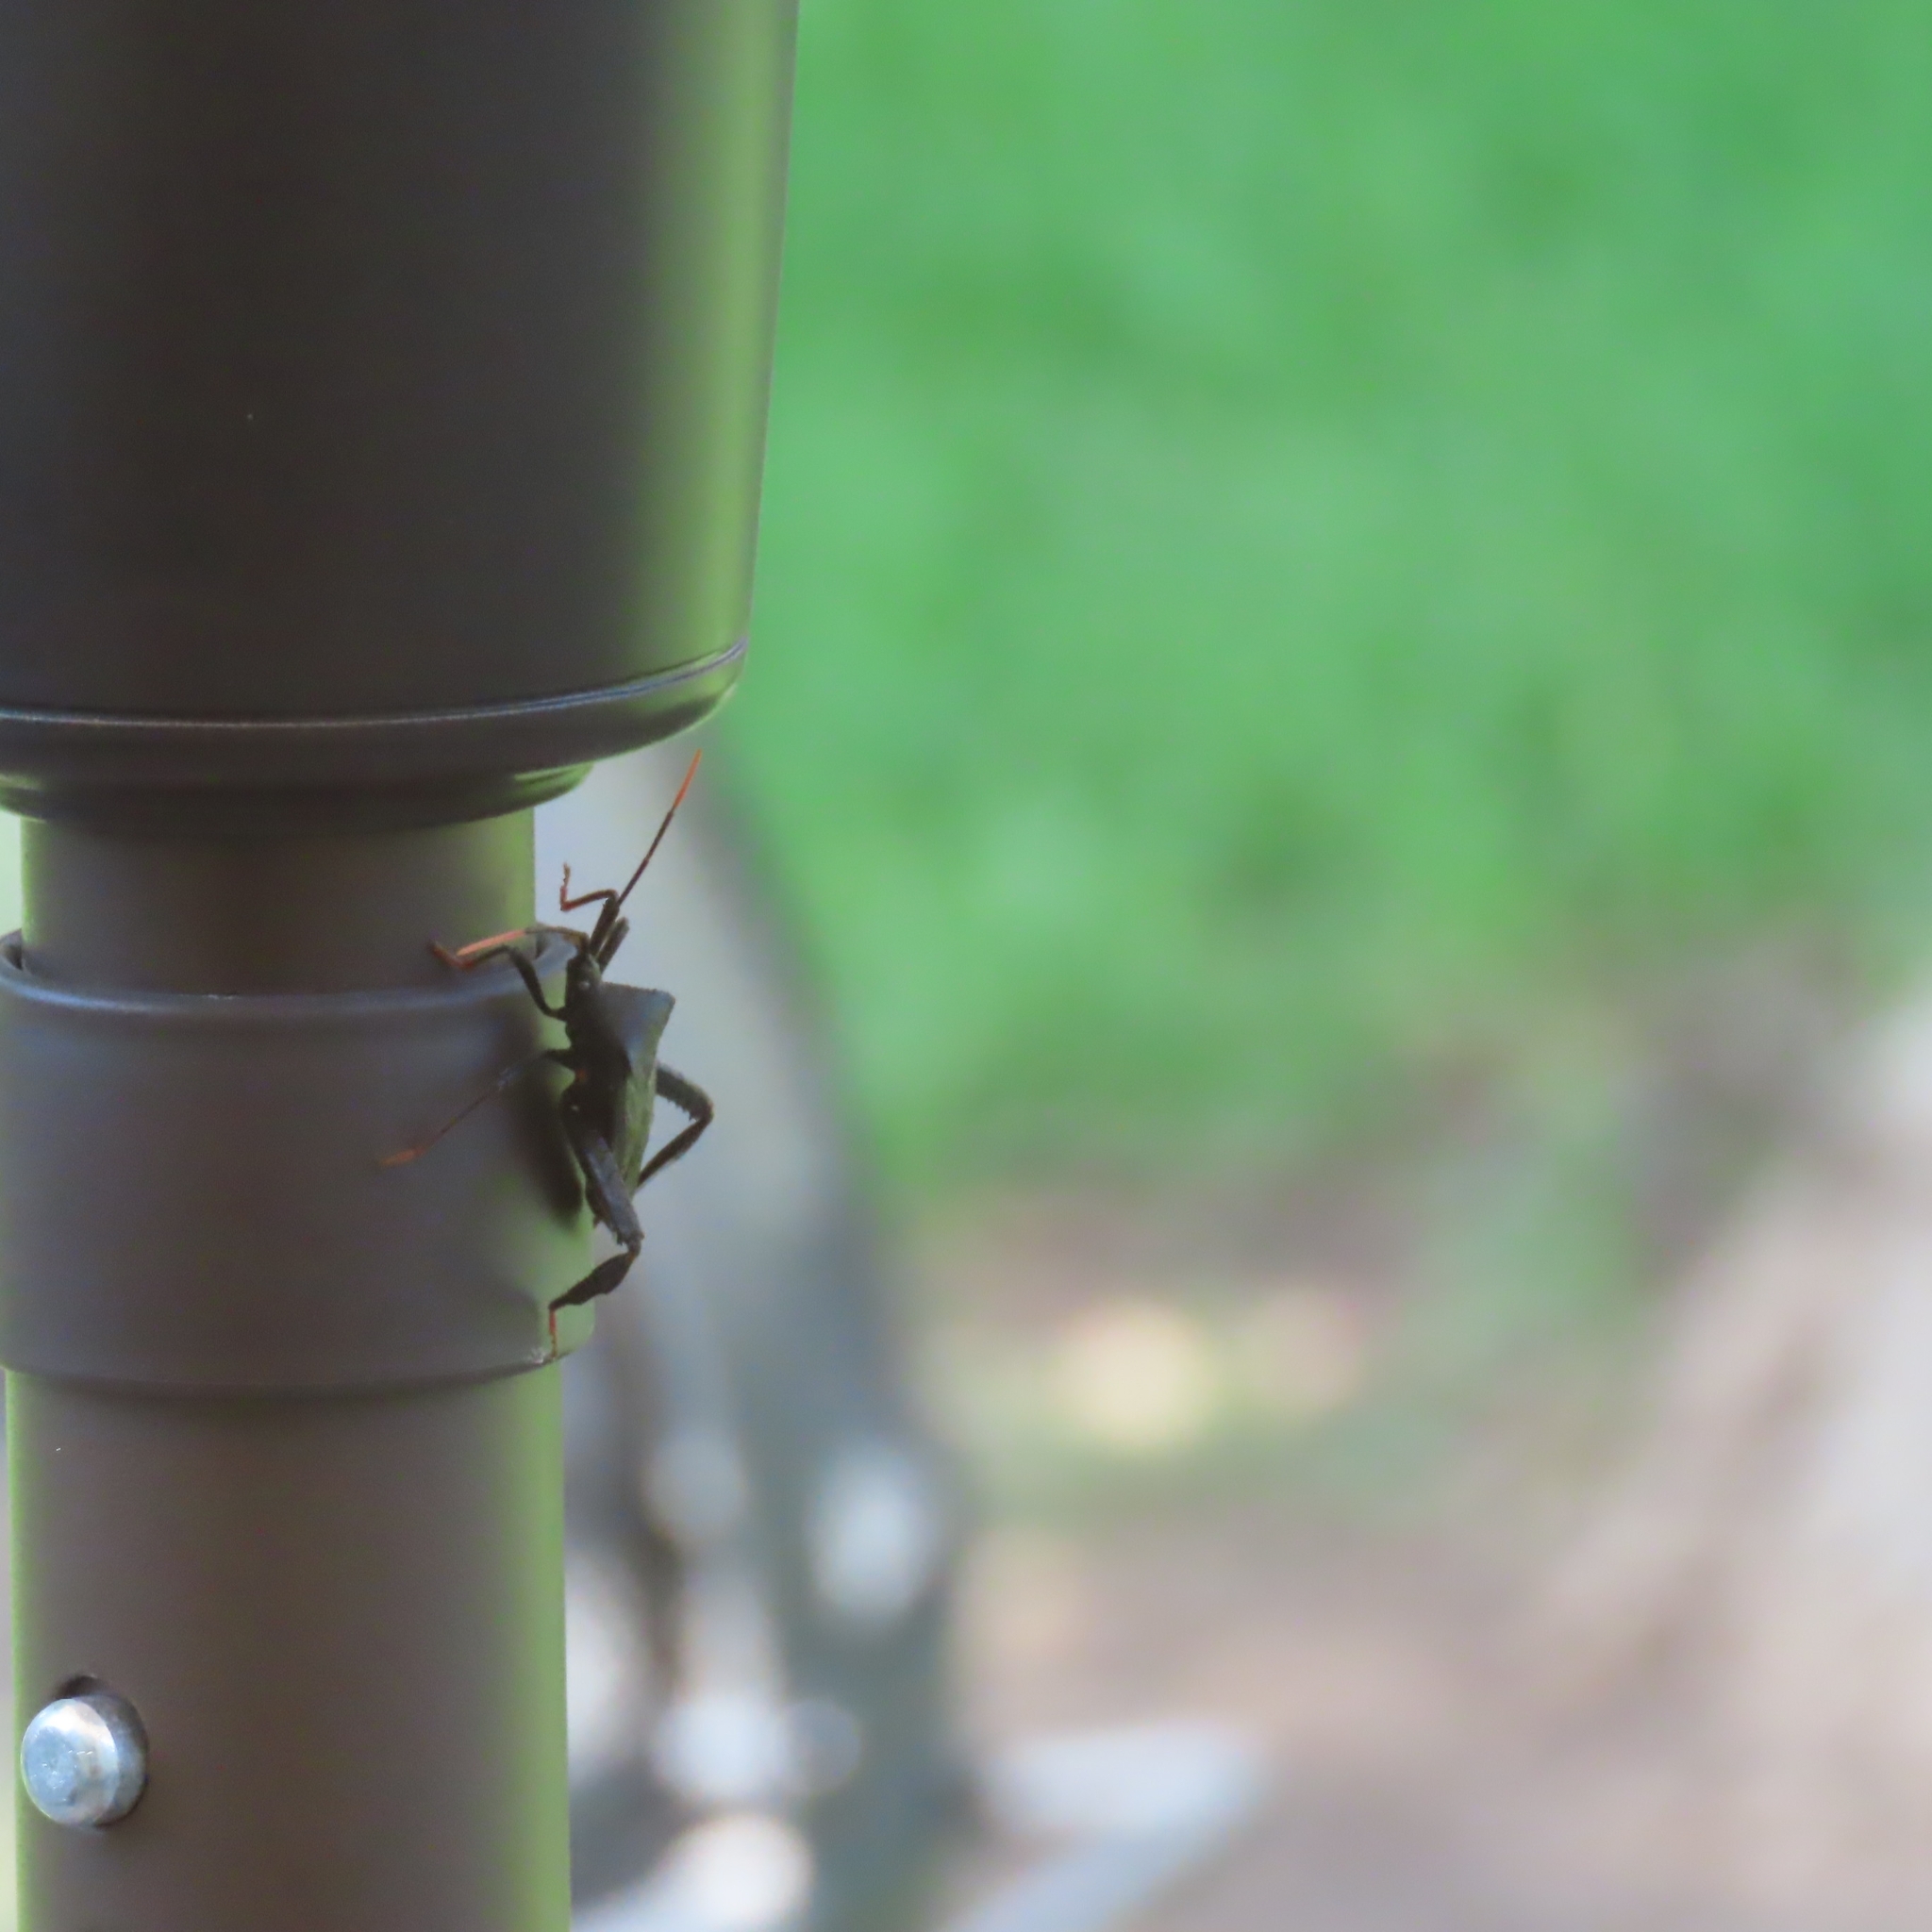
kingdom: Animalia
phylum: Arthropoda
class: Insecta
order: Hemiptera
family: Coreidae
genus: Acanthocephala
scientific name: Acanthocephala terminalis
